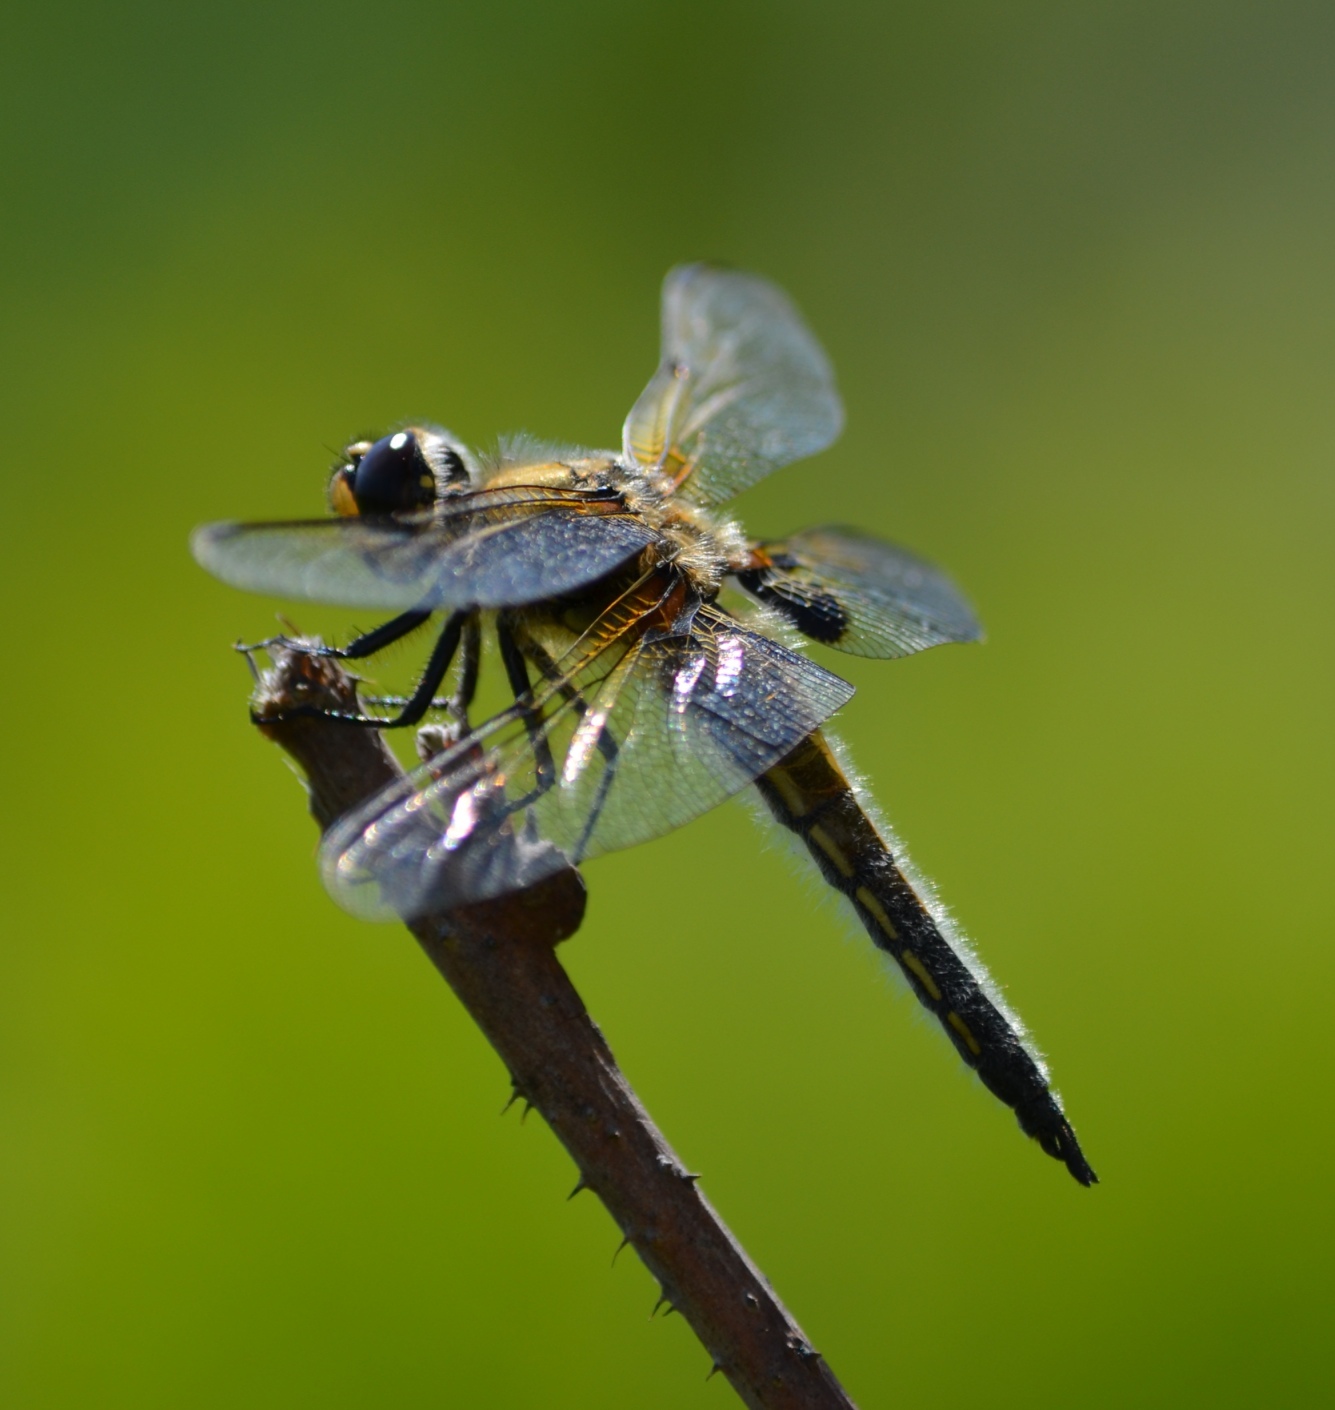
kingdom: Animalia
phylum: Arthropoda
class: Insecta
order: Odonata
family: Libellulidae
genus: Libellula
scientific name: Libellula quadrimaculata
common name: Four-spotted chaser
